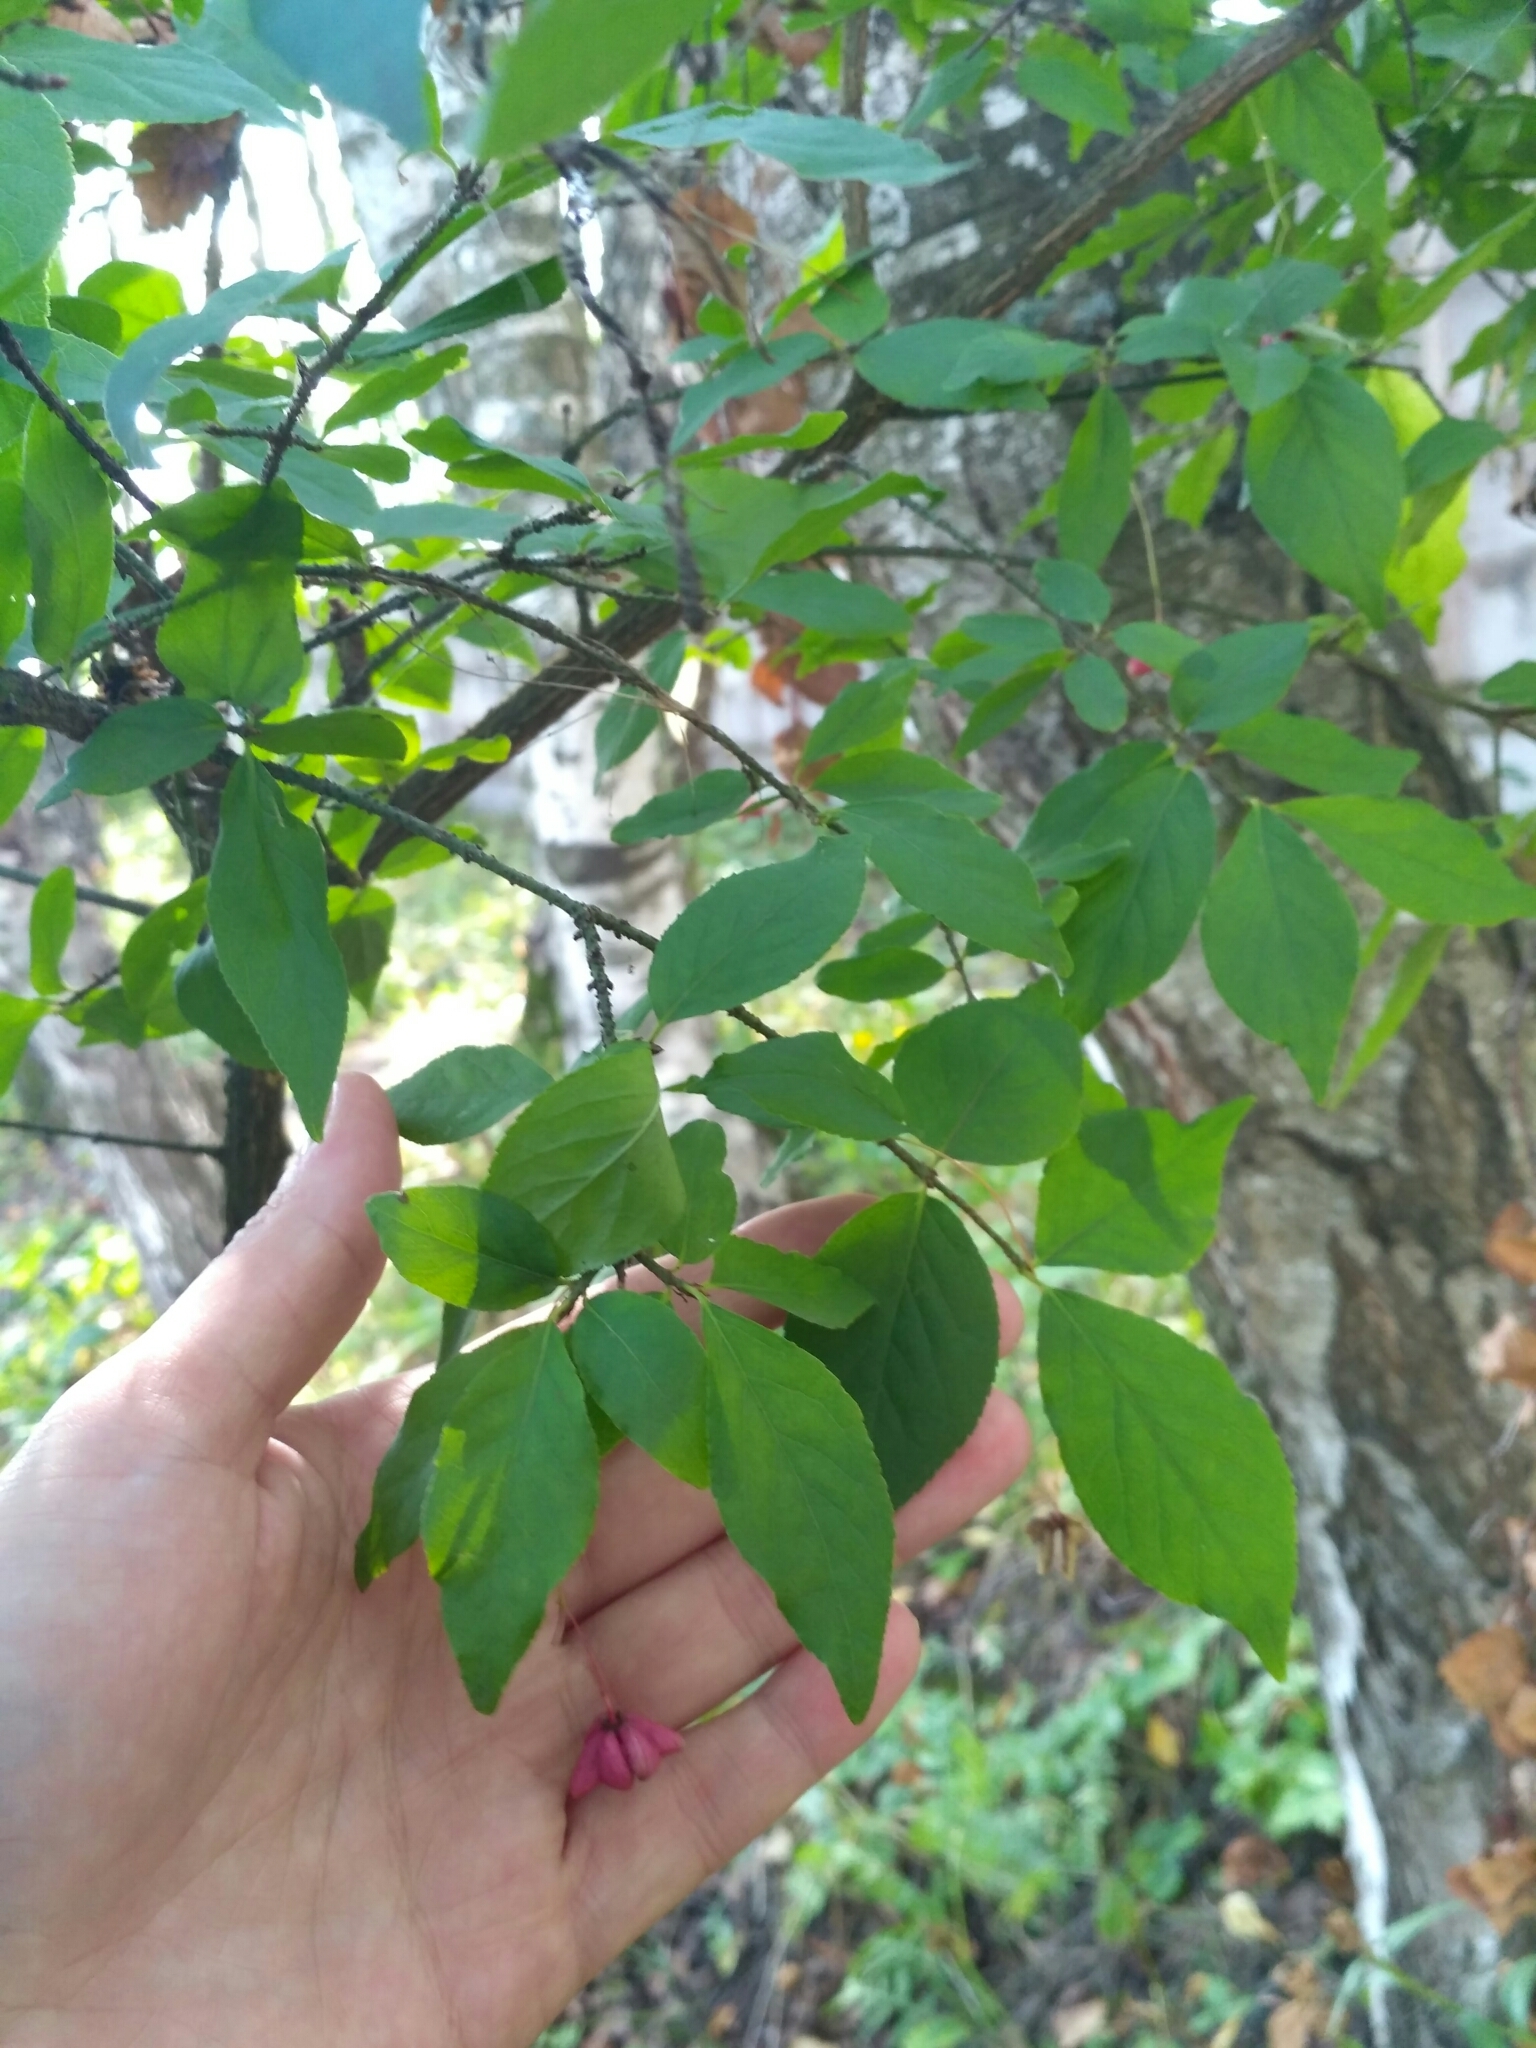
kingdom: Plantae
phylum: Tracheophyta
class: Magnoliopsida
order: Celastrales
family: Celastraceae
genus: Euonymus
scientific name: Euonymus verrucosus
